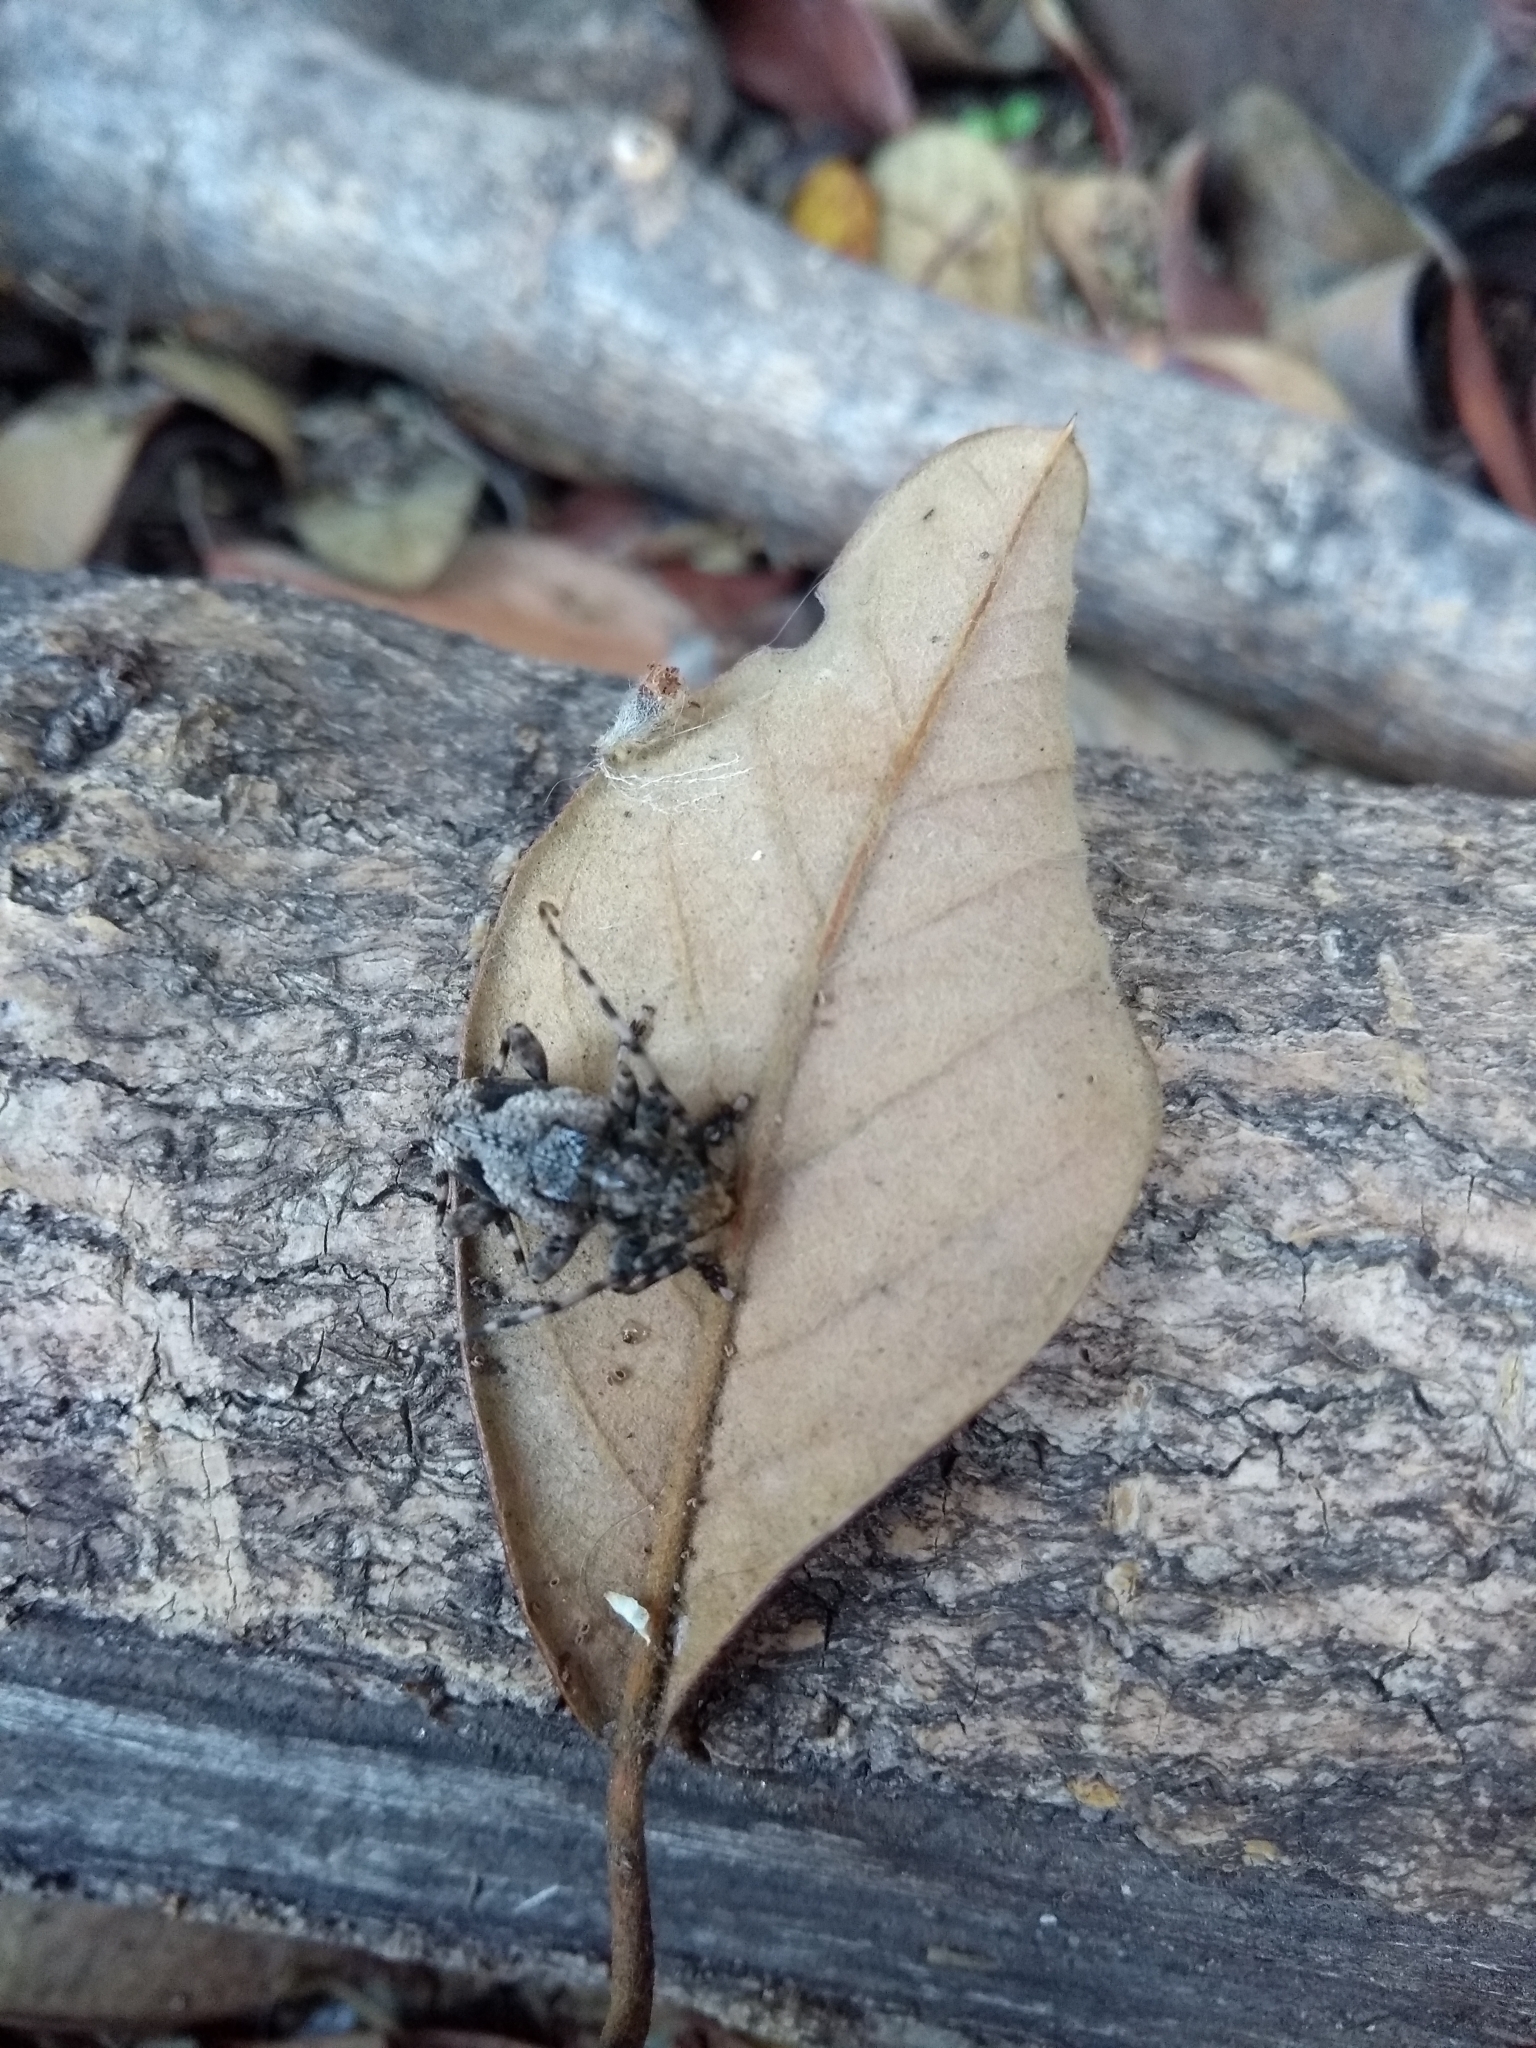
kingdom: Animalia
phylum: Arthropoda
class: Insecta
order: Coleoptera
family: Cerambycidae
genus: Psapharochrus
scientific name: Psapharochrus jaspideus
